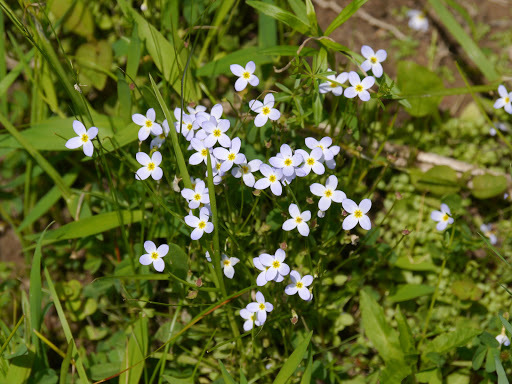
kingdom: Plantae
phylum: Tracheophyta
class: Magnoliopsida
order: Gentianales
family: Rubiaceae
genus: Houstonia
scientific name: Houstonia caerulea
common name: Bluets
